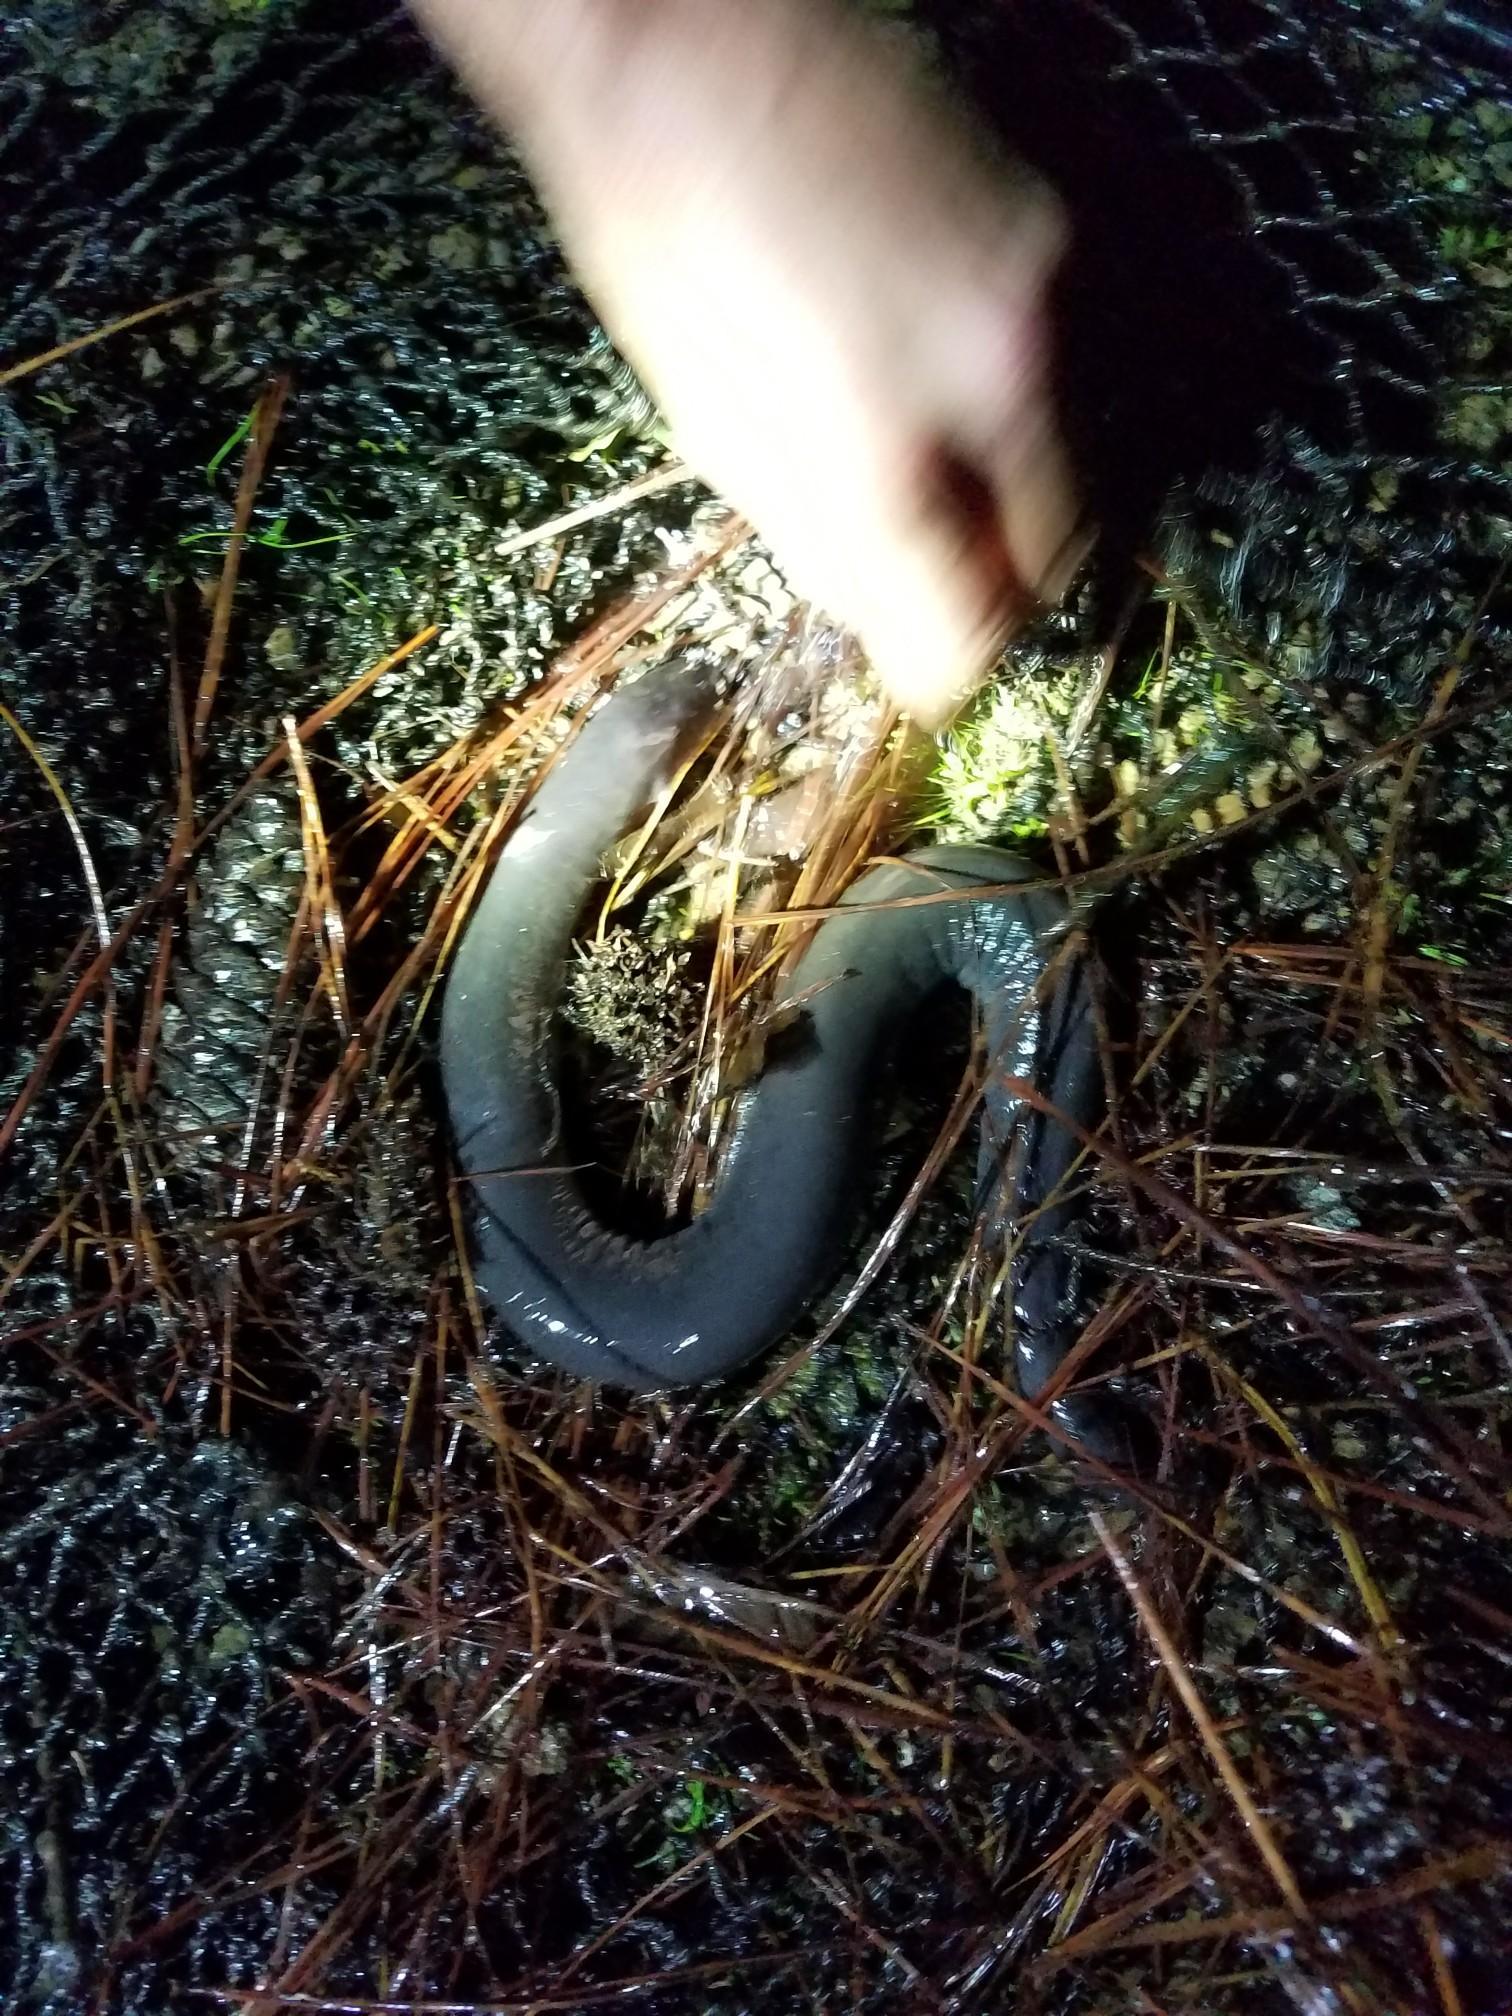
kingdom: Animalia
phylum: Chordata
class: Amphibia
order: Caudata
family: Amphiumidae
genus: Amphiuma
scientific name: Amphiuma tridactylum
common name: Three-toed amphiuma
